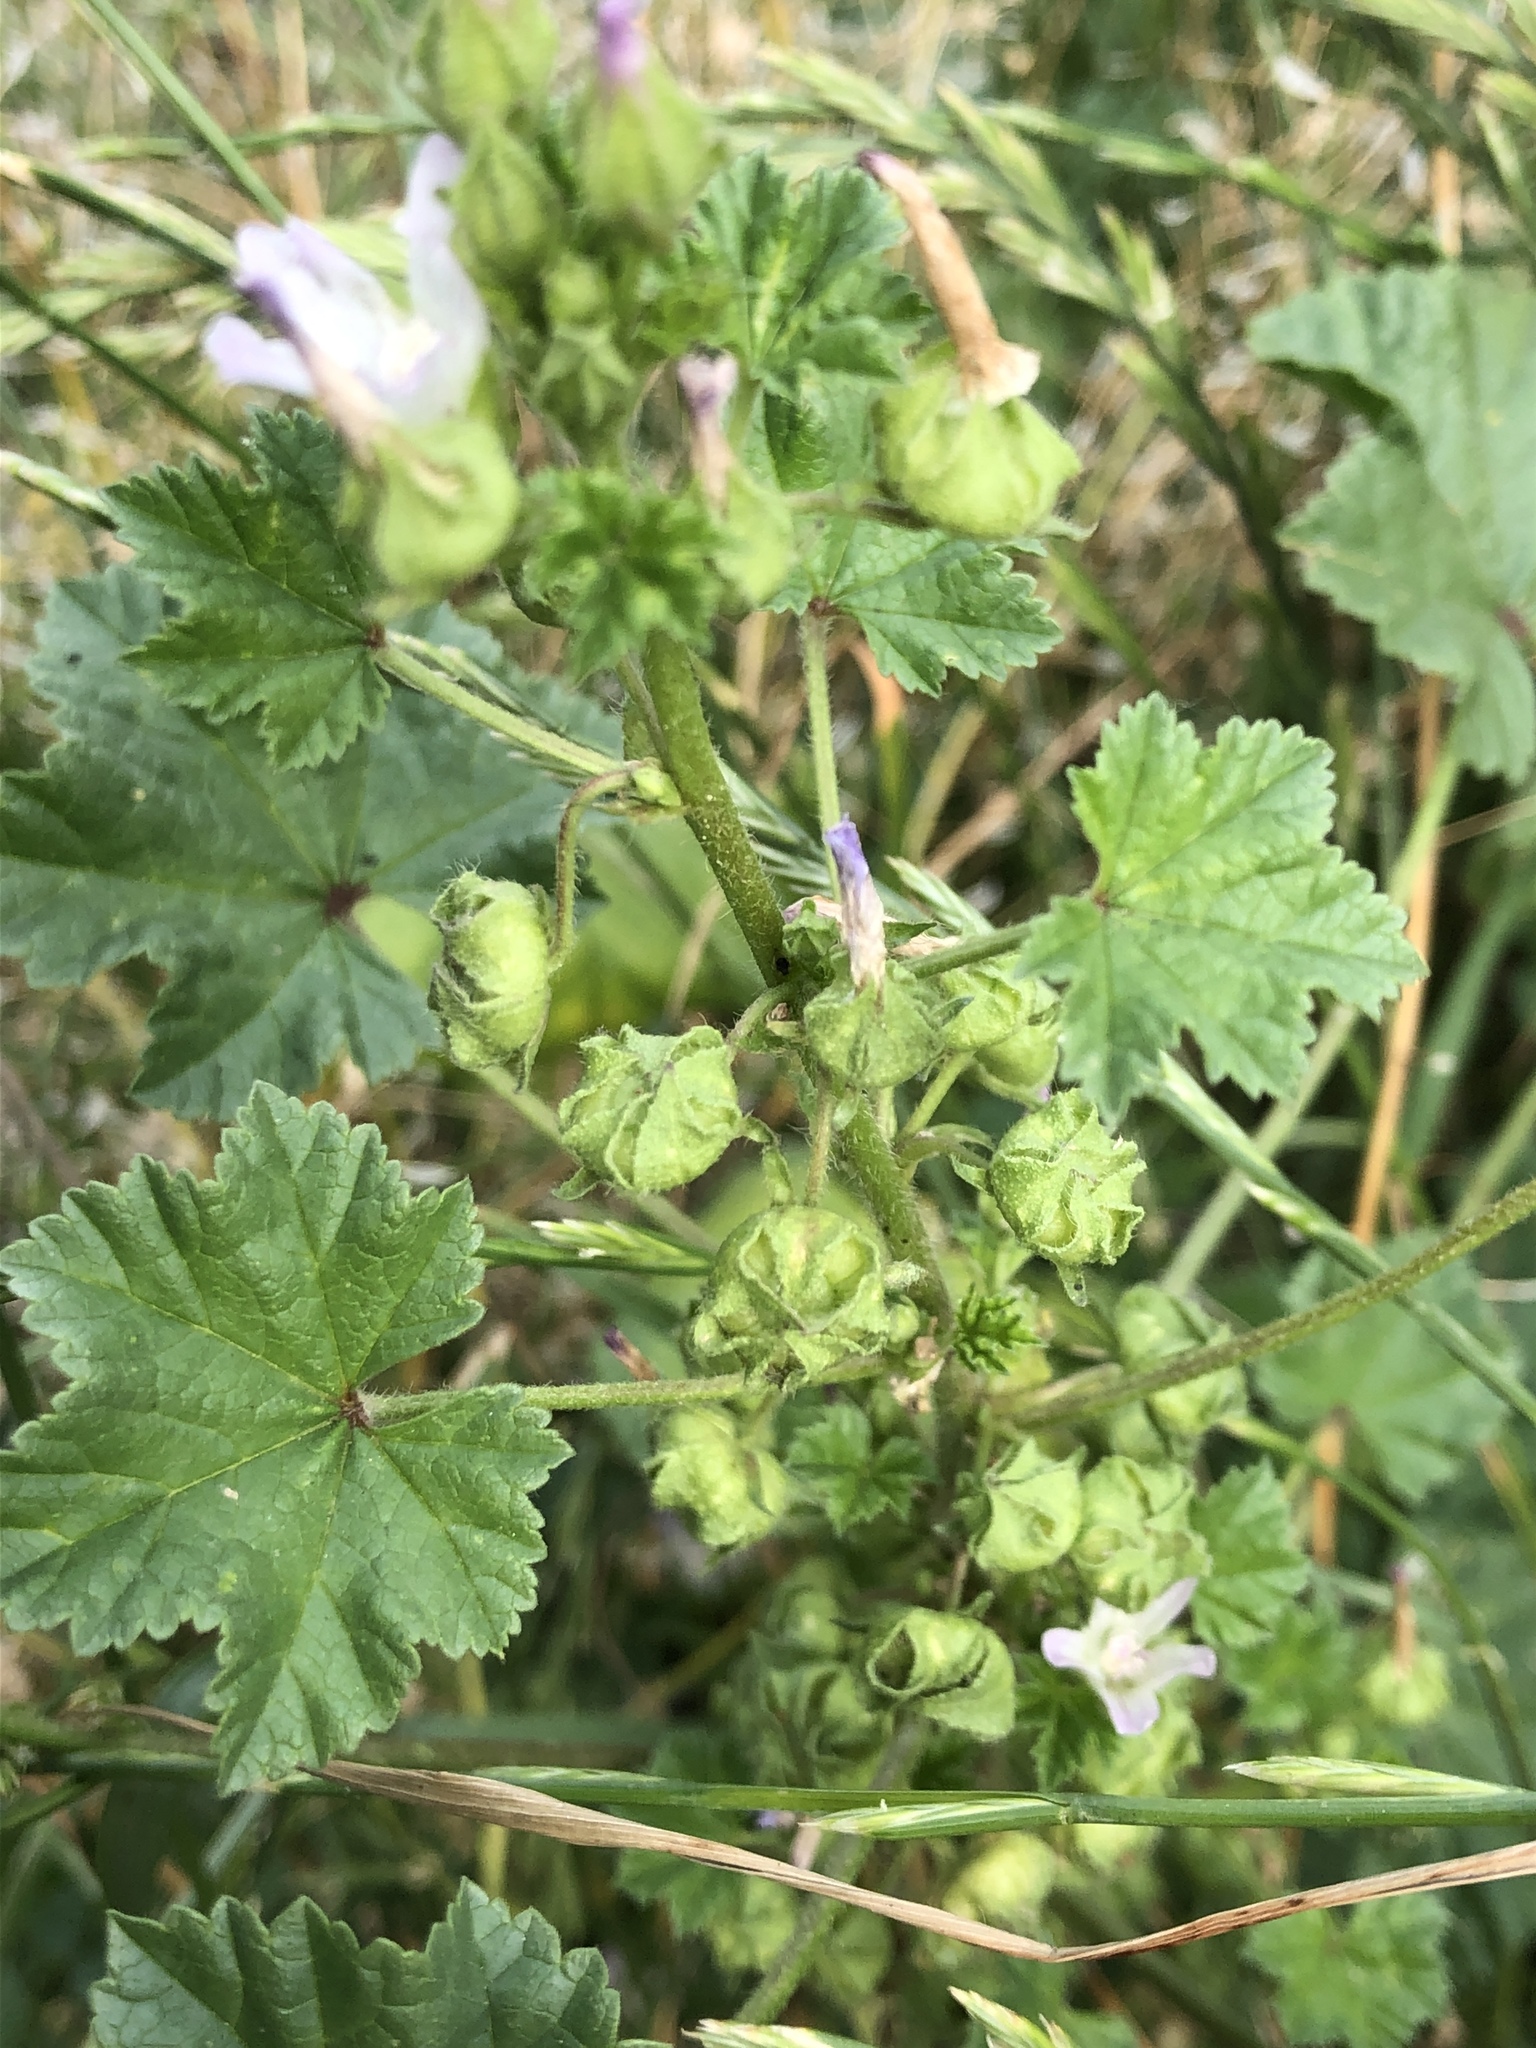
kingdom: Plantae
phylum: Tracheophyta
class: Magnoliopsida
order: Malvales
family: Malvaceae
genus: Malva
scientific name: Malva neglecta
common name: Common mallow
